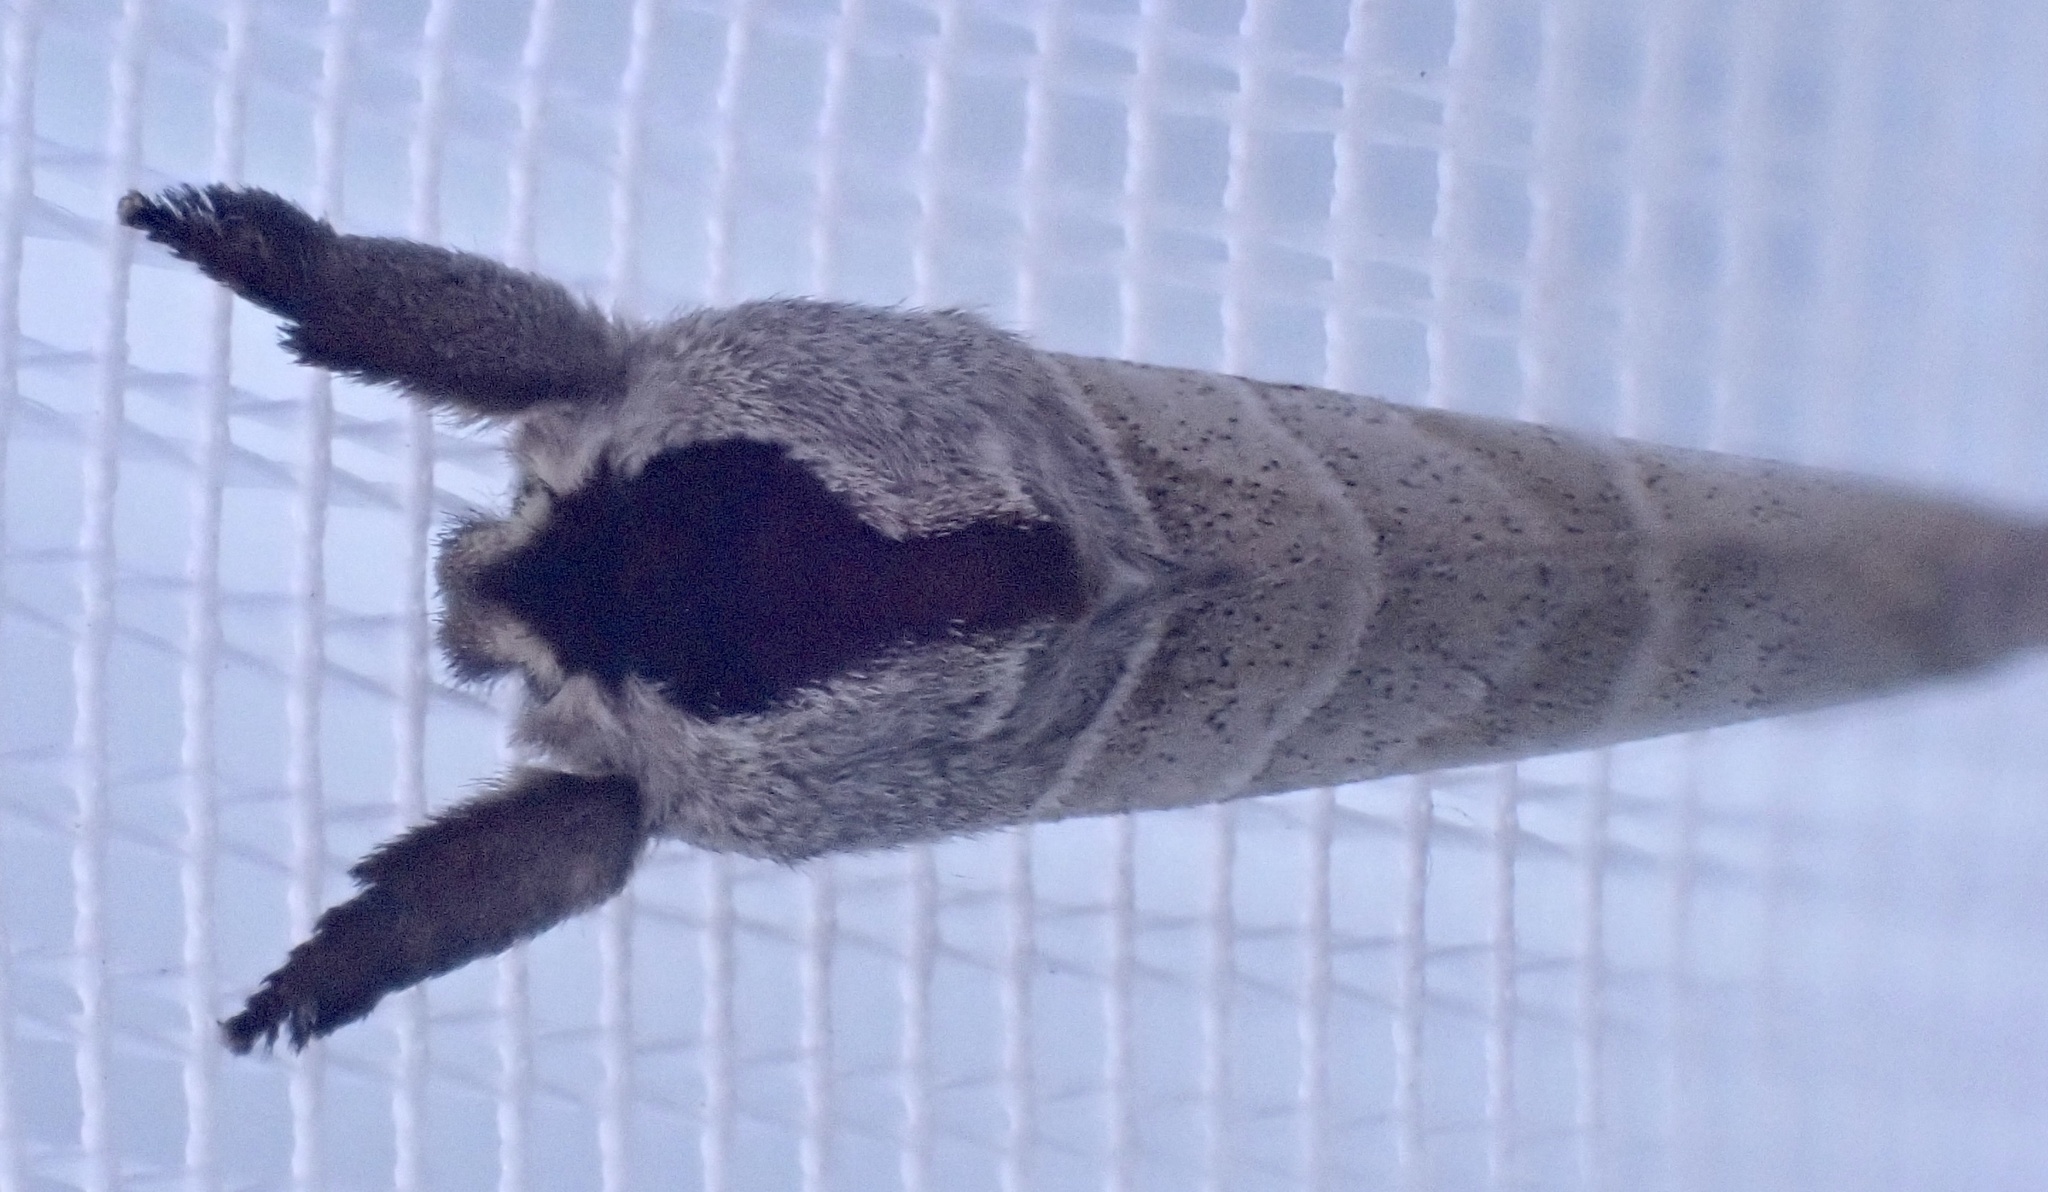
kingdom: Animalia
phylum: Arthropoda
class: Insecta
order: Lepidoptera
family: Notodontidae
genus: Clostera
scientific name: Clostera curtula
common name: Chocolate-tip
